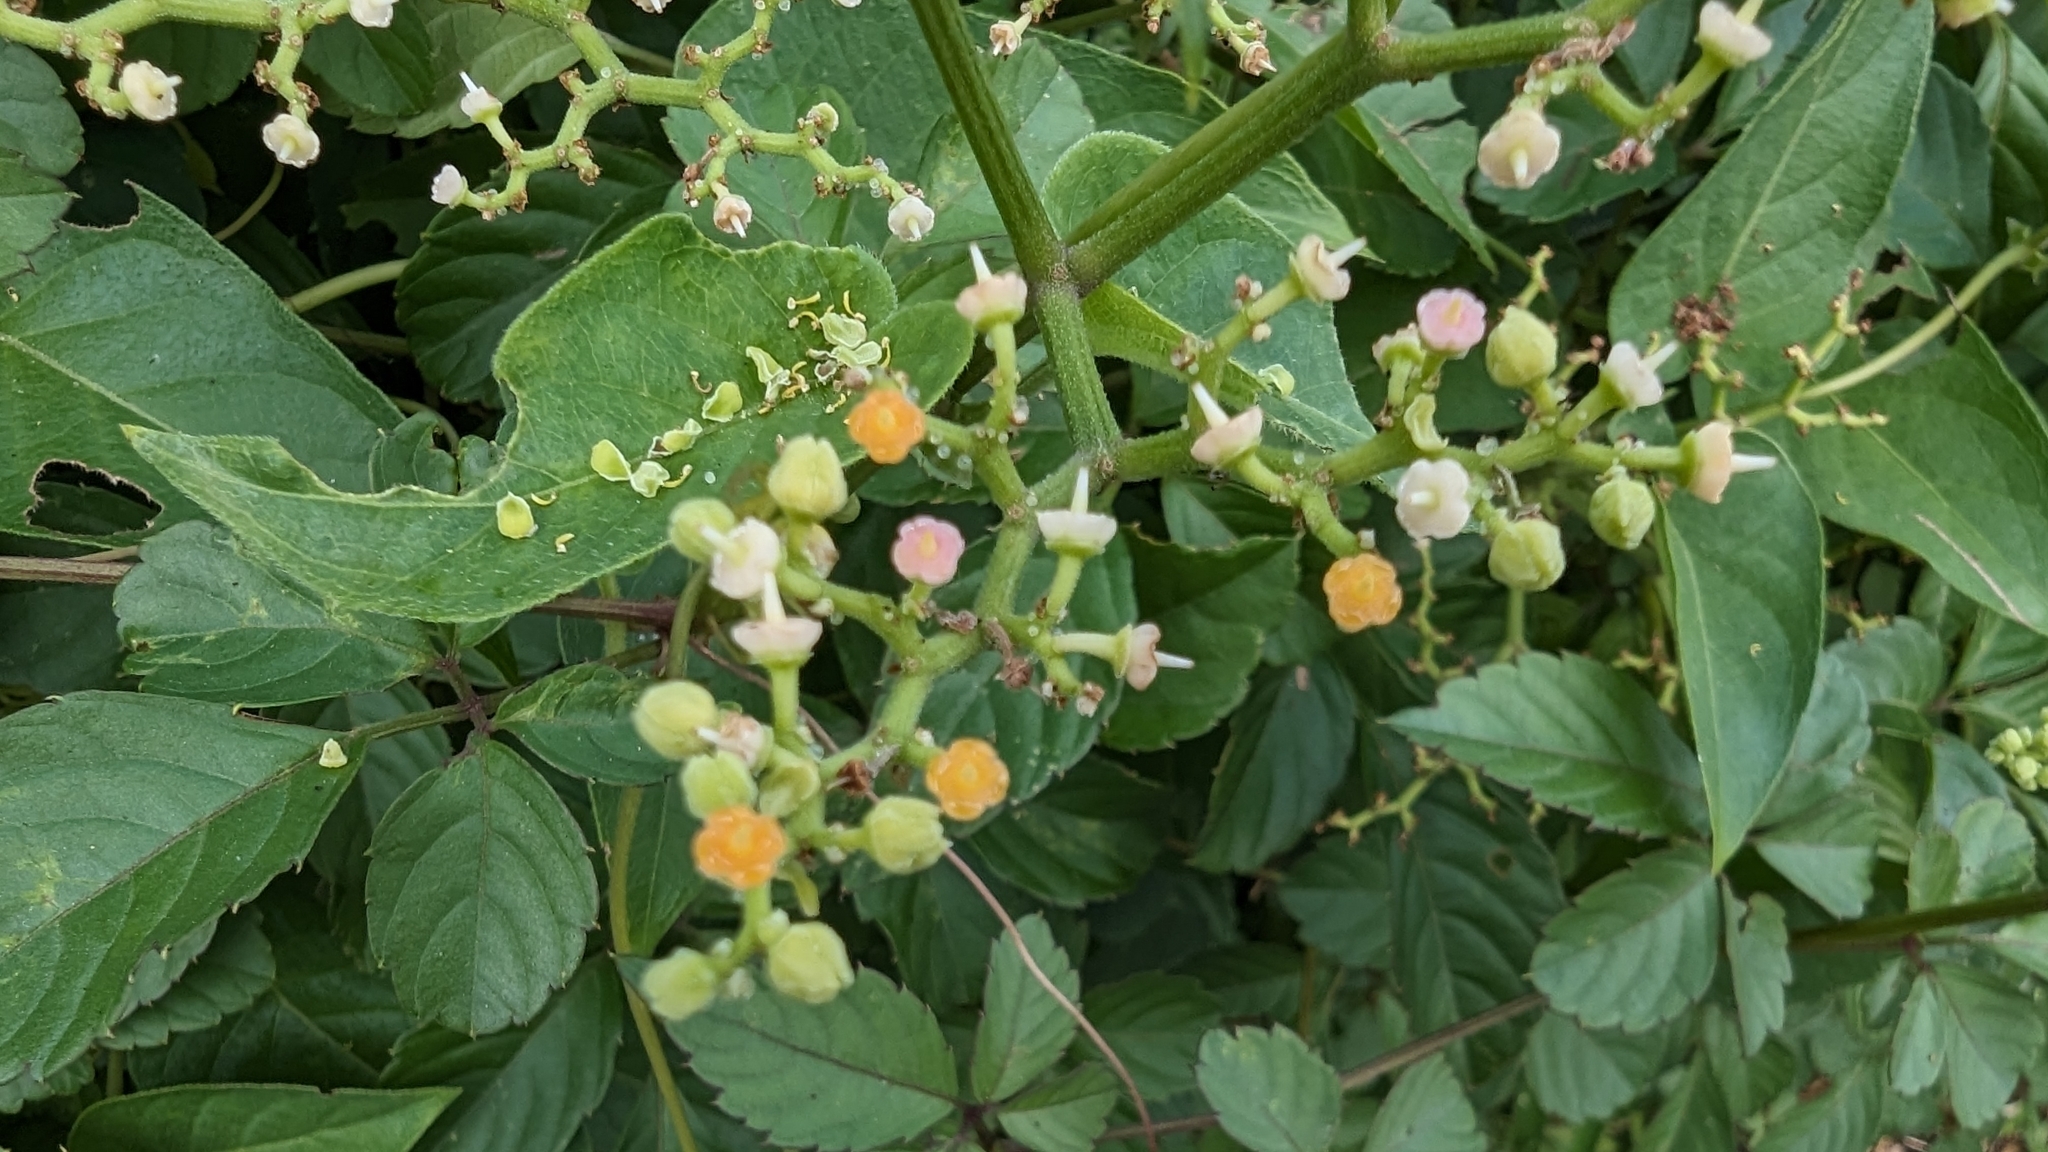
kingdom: Plantae
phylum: Tracheophyta
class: Magnoliopsida
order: Vitales
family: Vitaceae
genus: Causonis
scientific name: Causonis japonica
